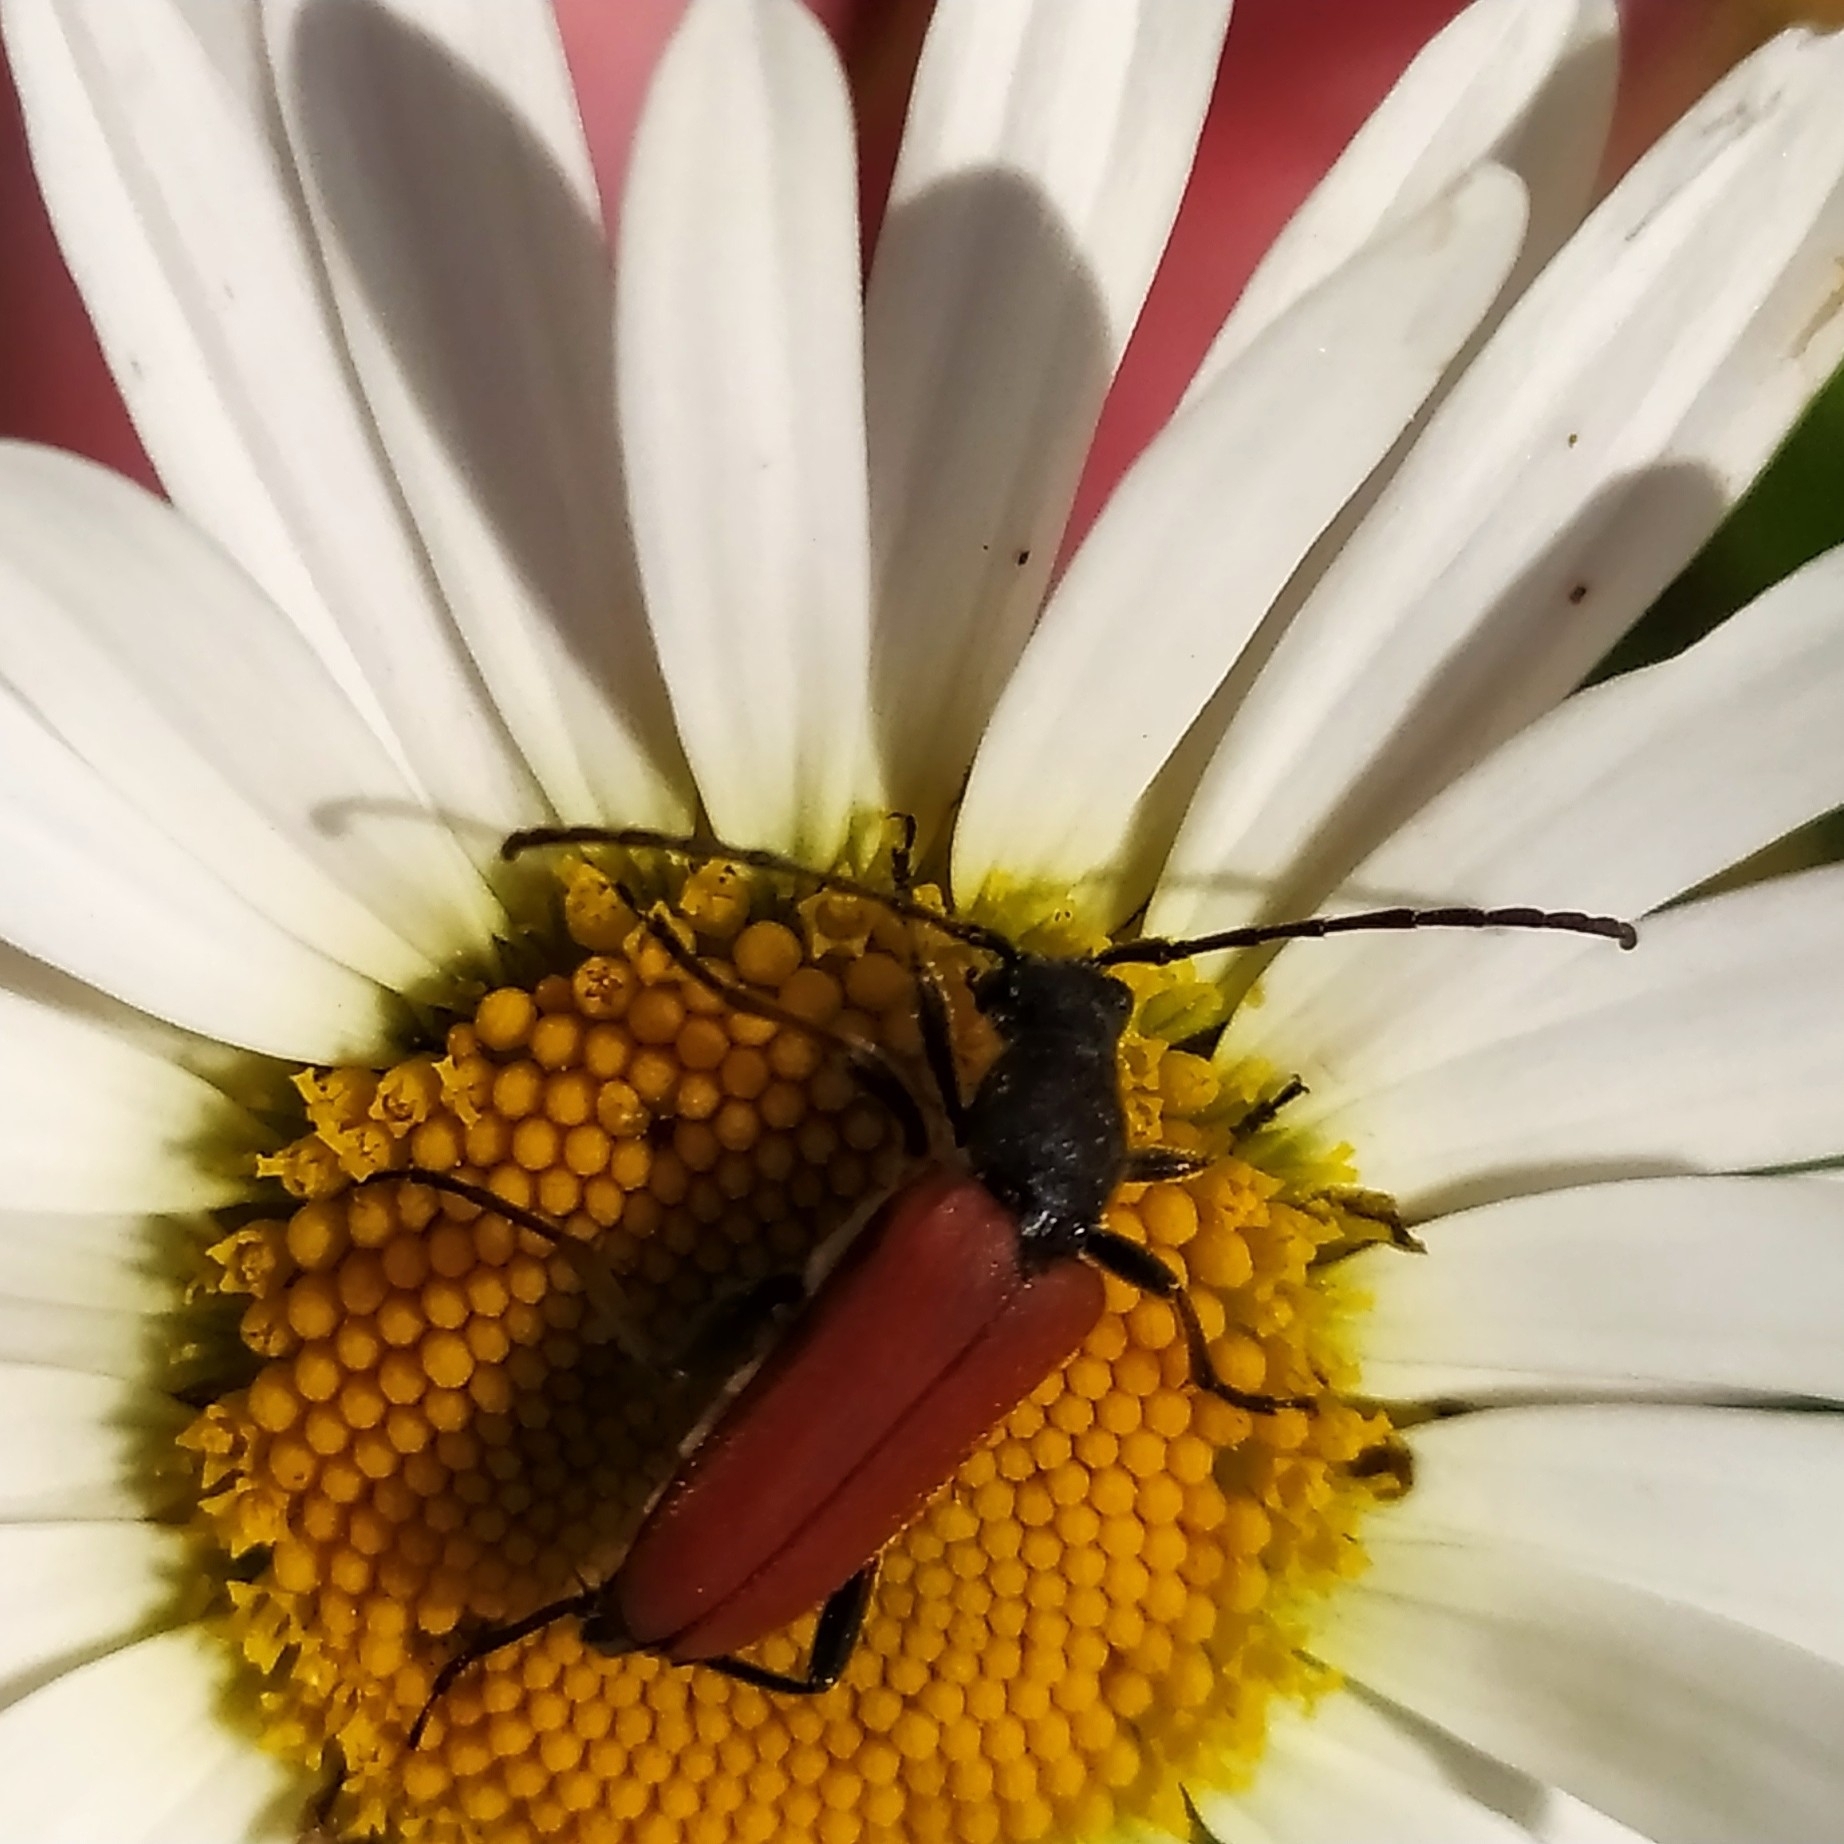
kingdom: Animalia
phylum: Arthropoda
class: Insecta
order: Coleoptera
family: Cerambycidae
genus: Anastrangalia
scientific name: Anastrangalia reyi
